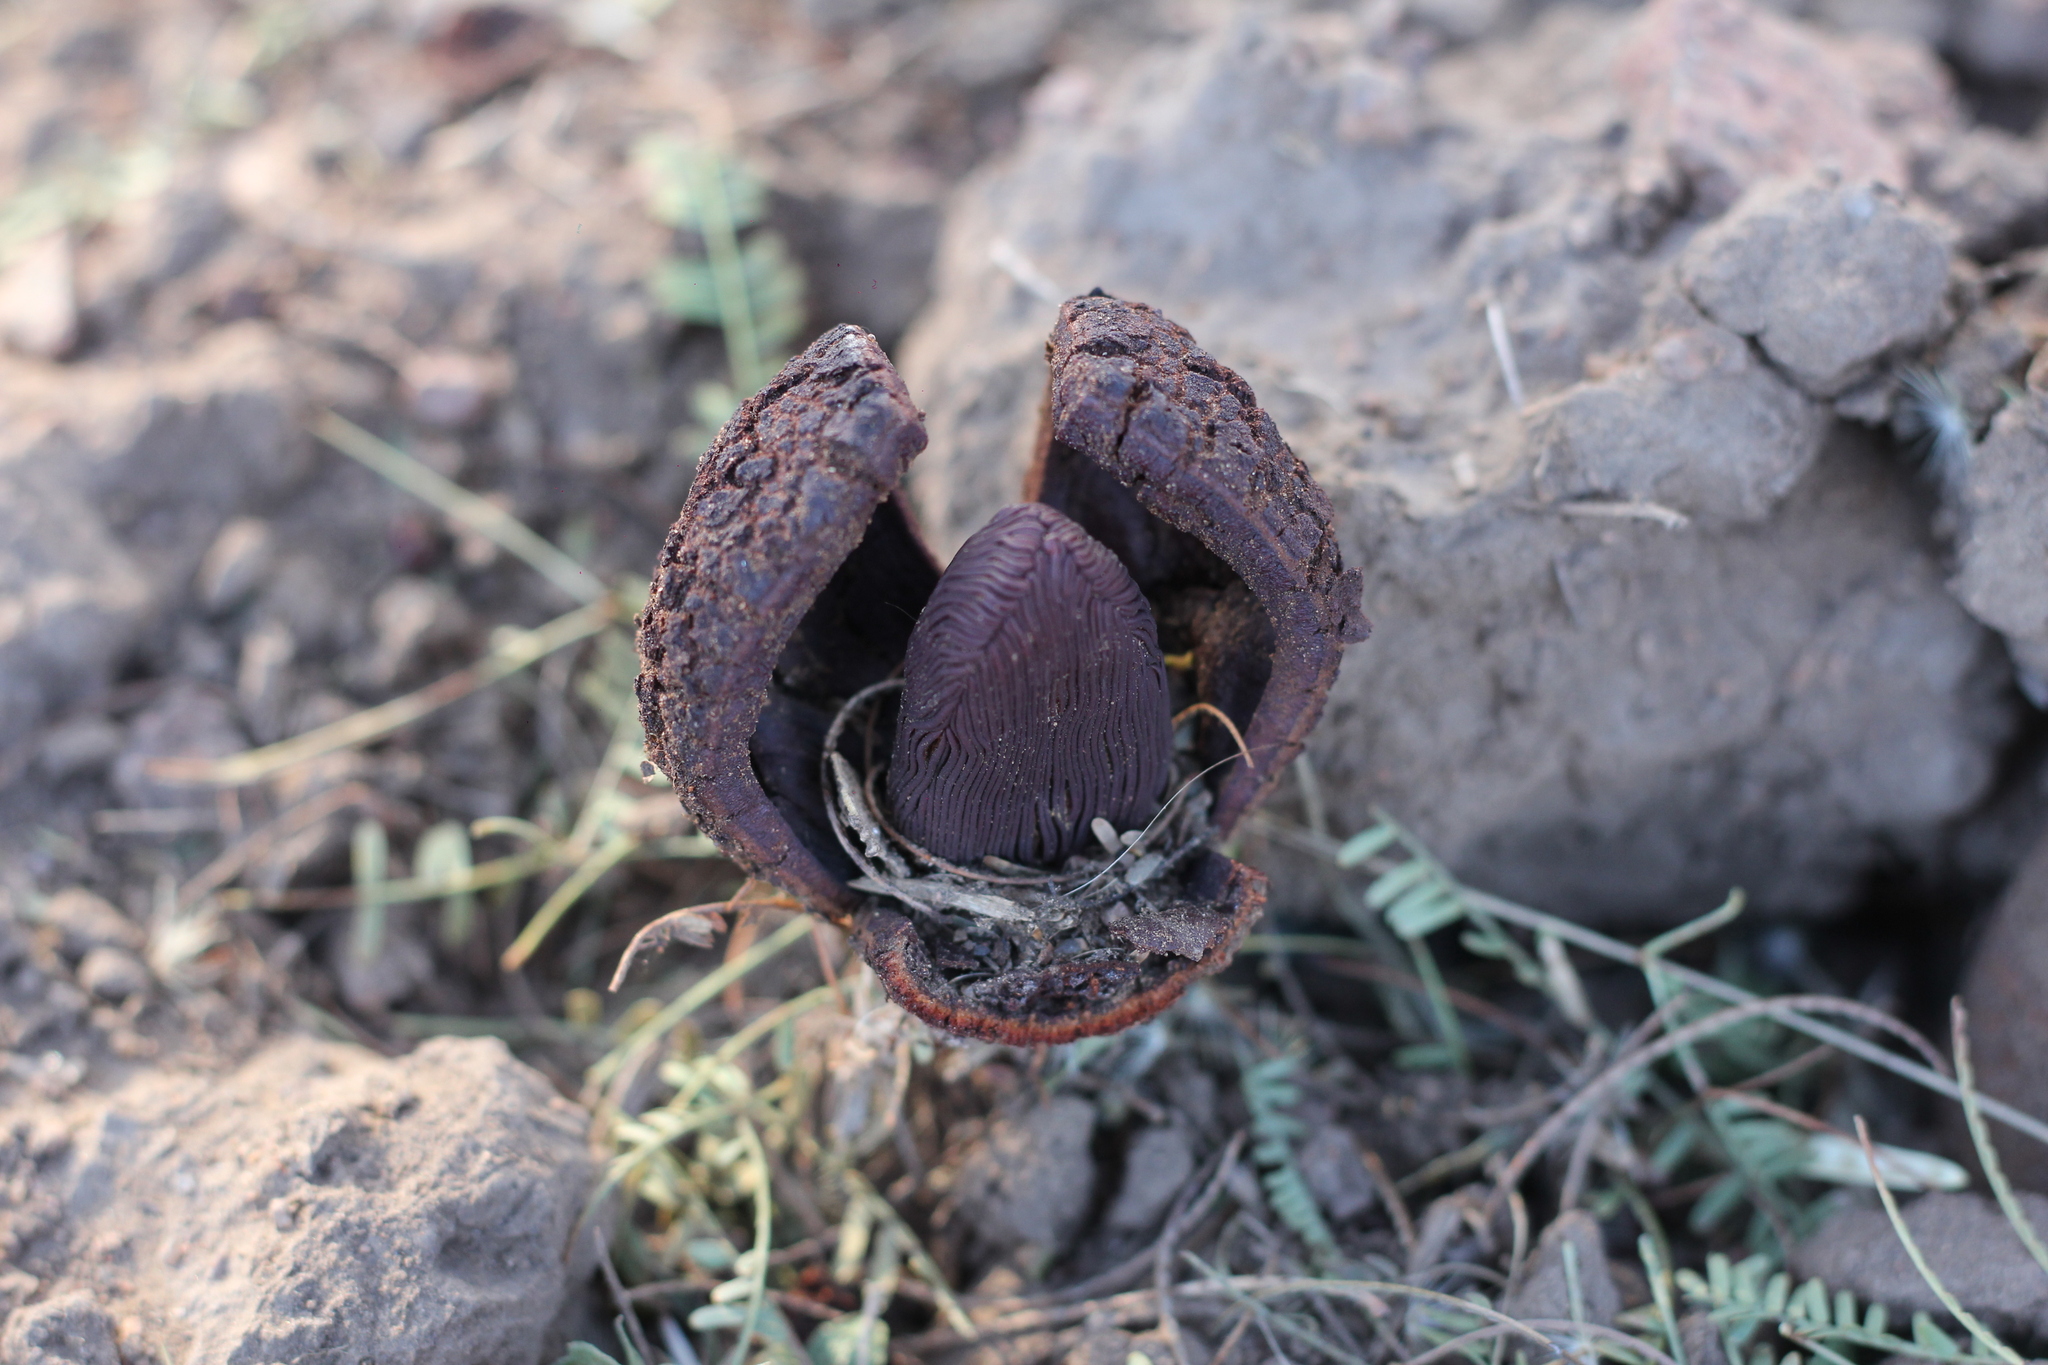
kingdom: Plantae
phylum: Tracheophyta
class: Magnoliopsida
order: Piperales
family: Hydnoraceae
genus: Prosopanche
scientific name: Prosopanche americana
